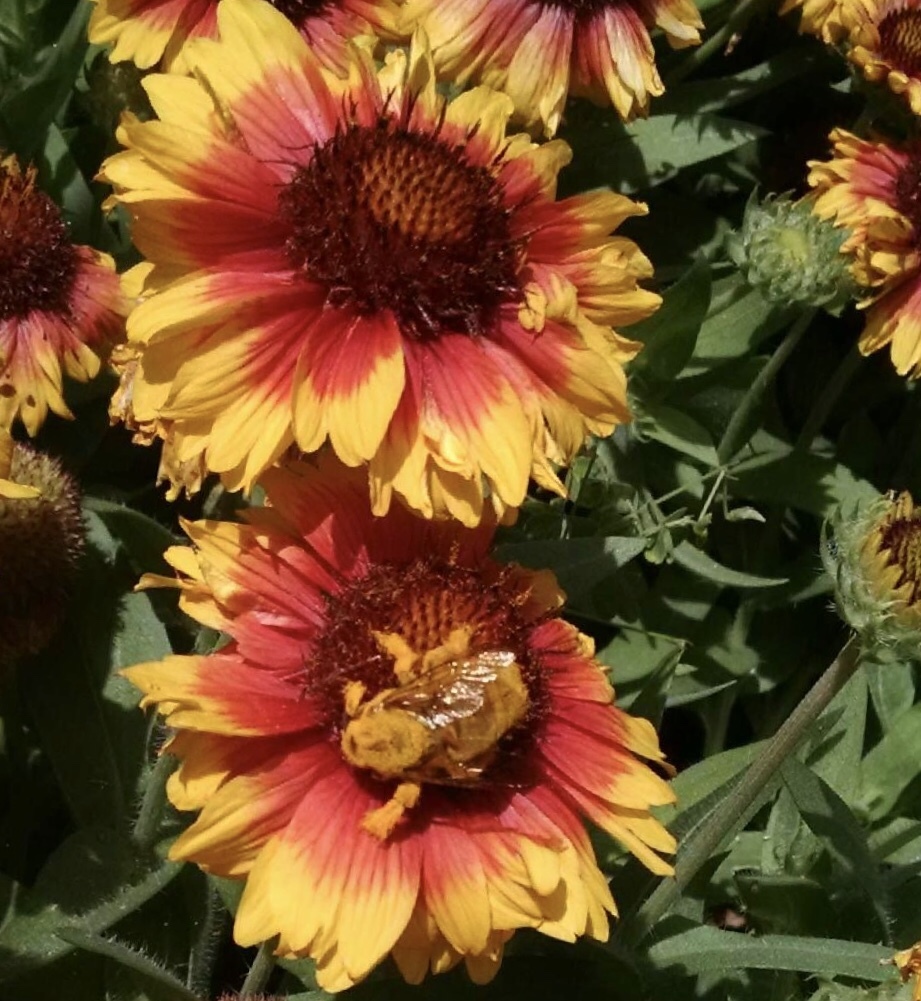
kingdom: Animalia
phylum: Arthropoda
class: Insecta
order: Hymenoptera
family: Apidae
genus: Xylocopa
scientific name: Xylocopa sonorina
